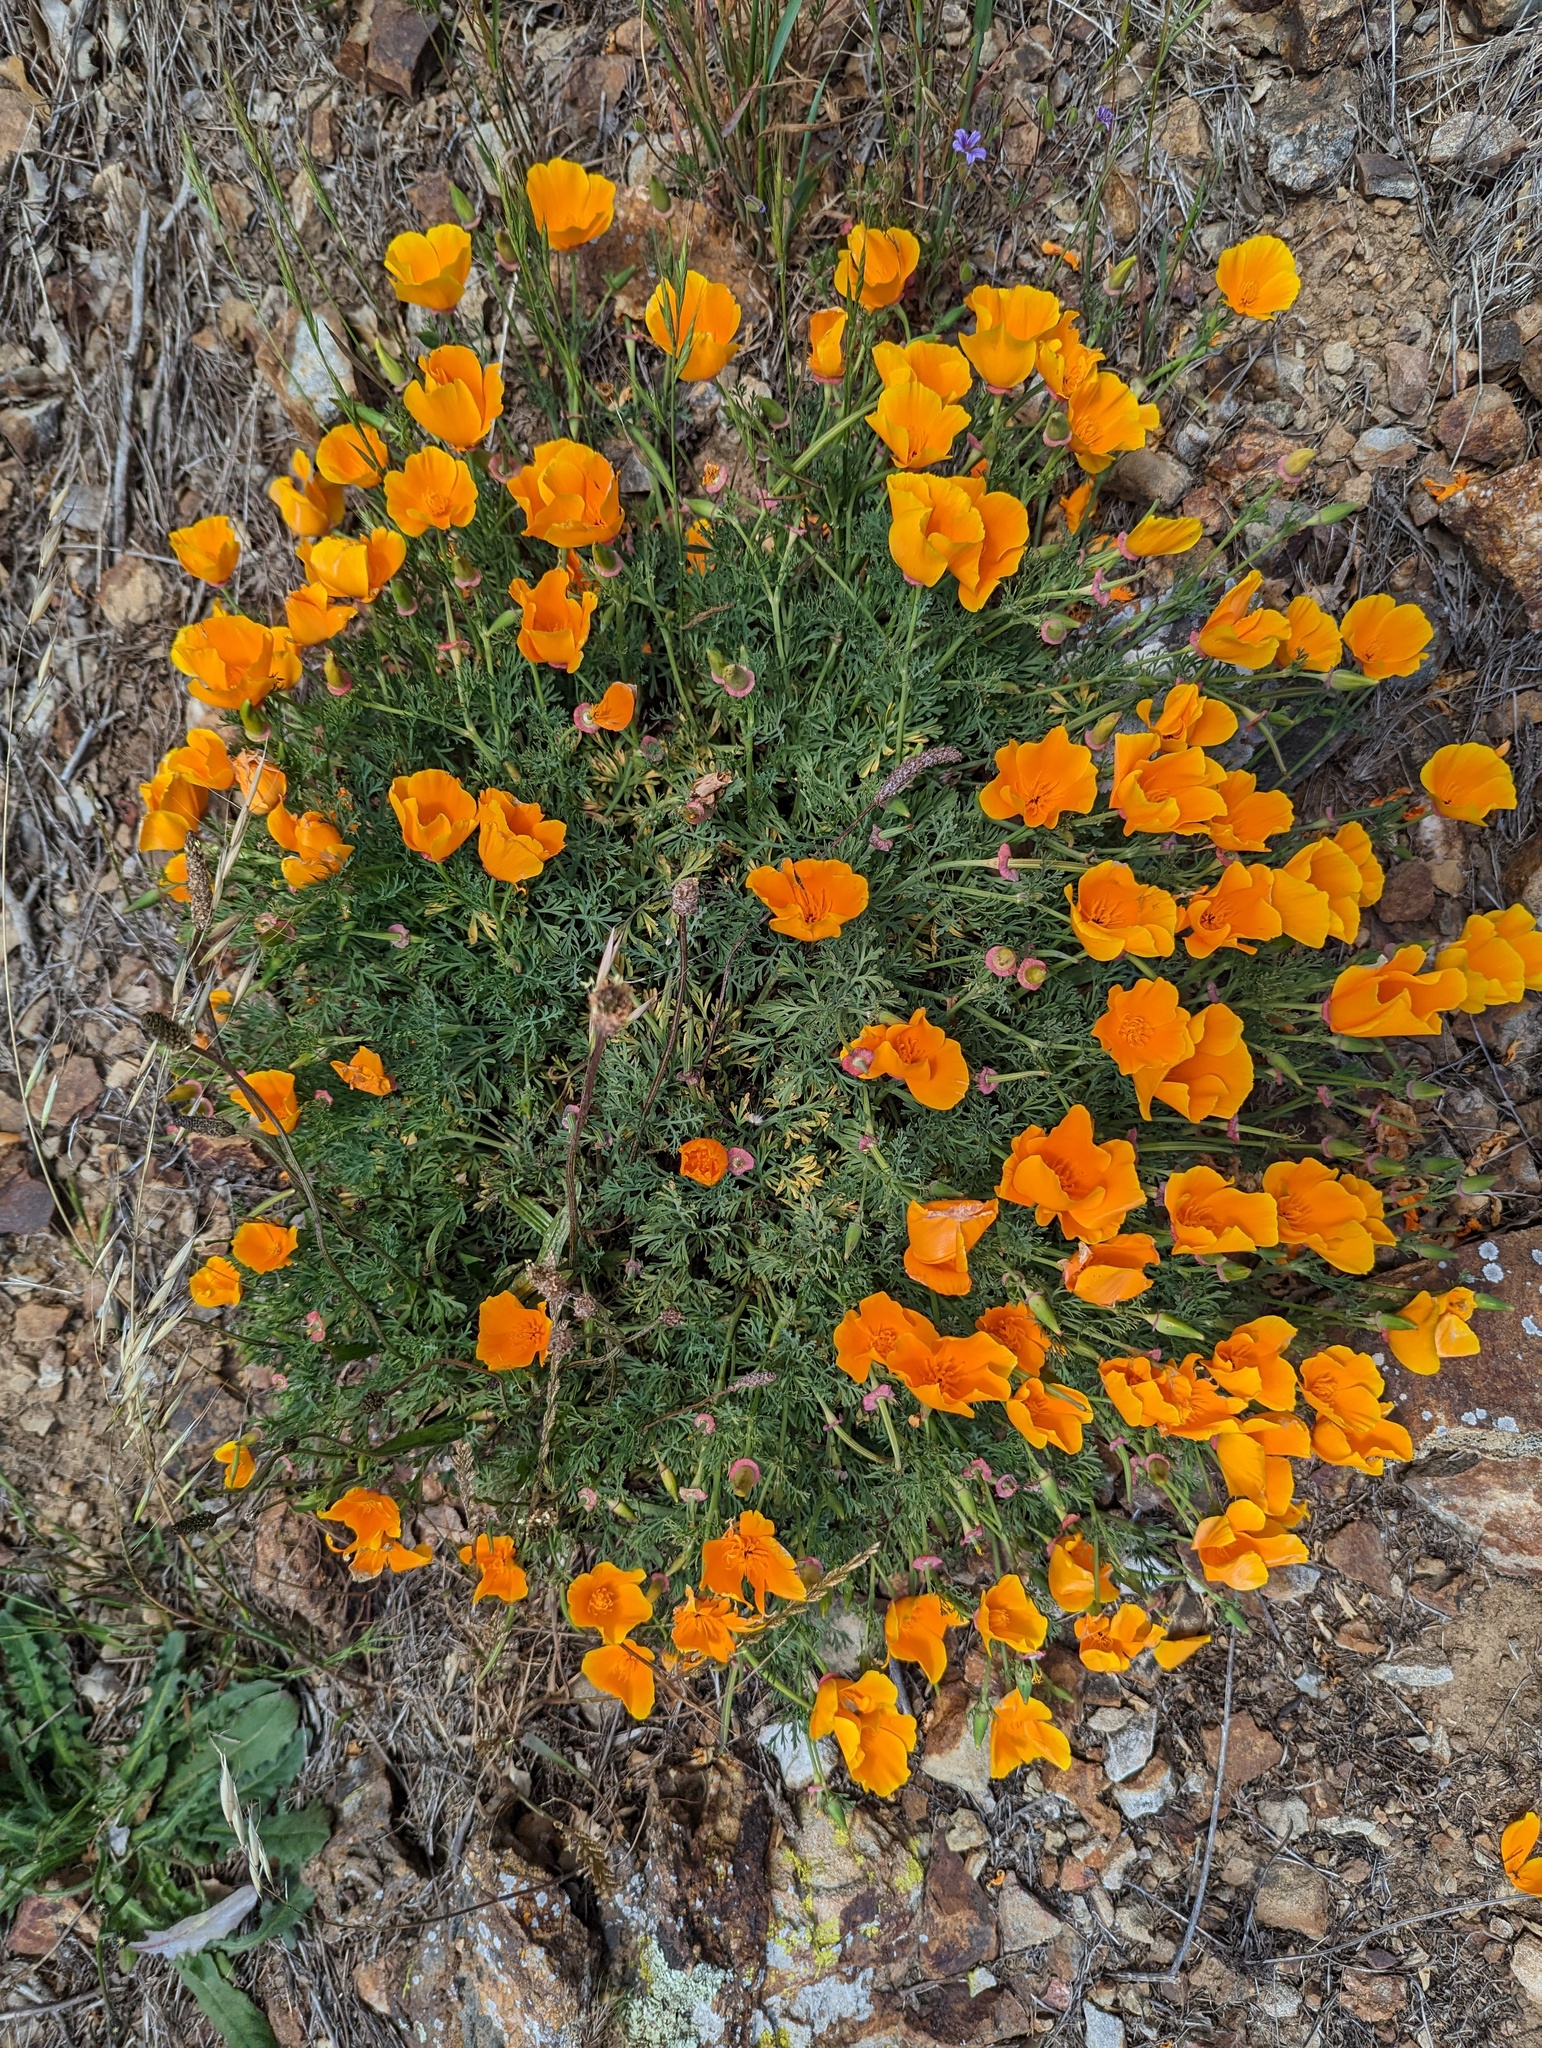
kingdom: Plantae
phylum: Tracheophyta
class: Magnoliopsida
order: Ranunculales
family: Papaveraceae
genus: Eschscholzia
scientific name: Eschscholzia californica
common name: California poppy
